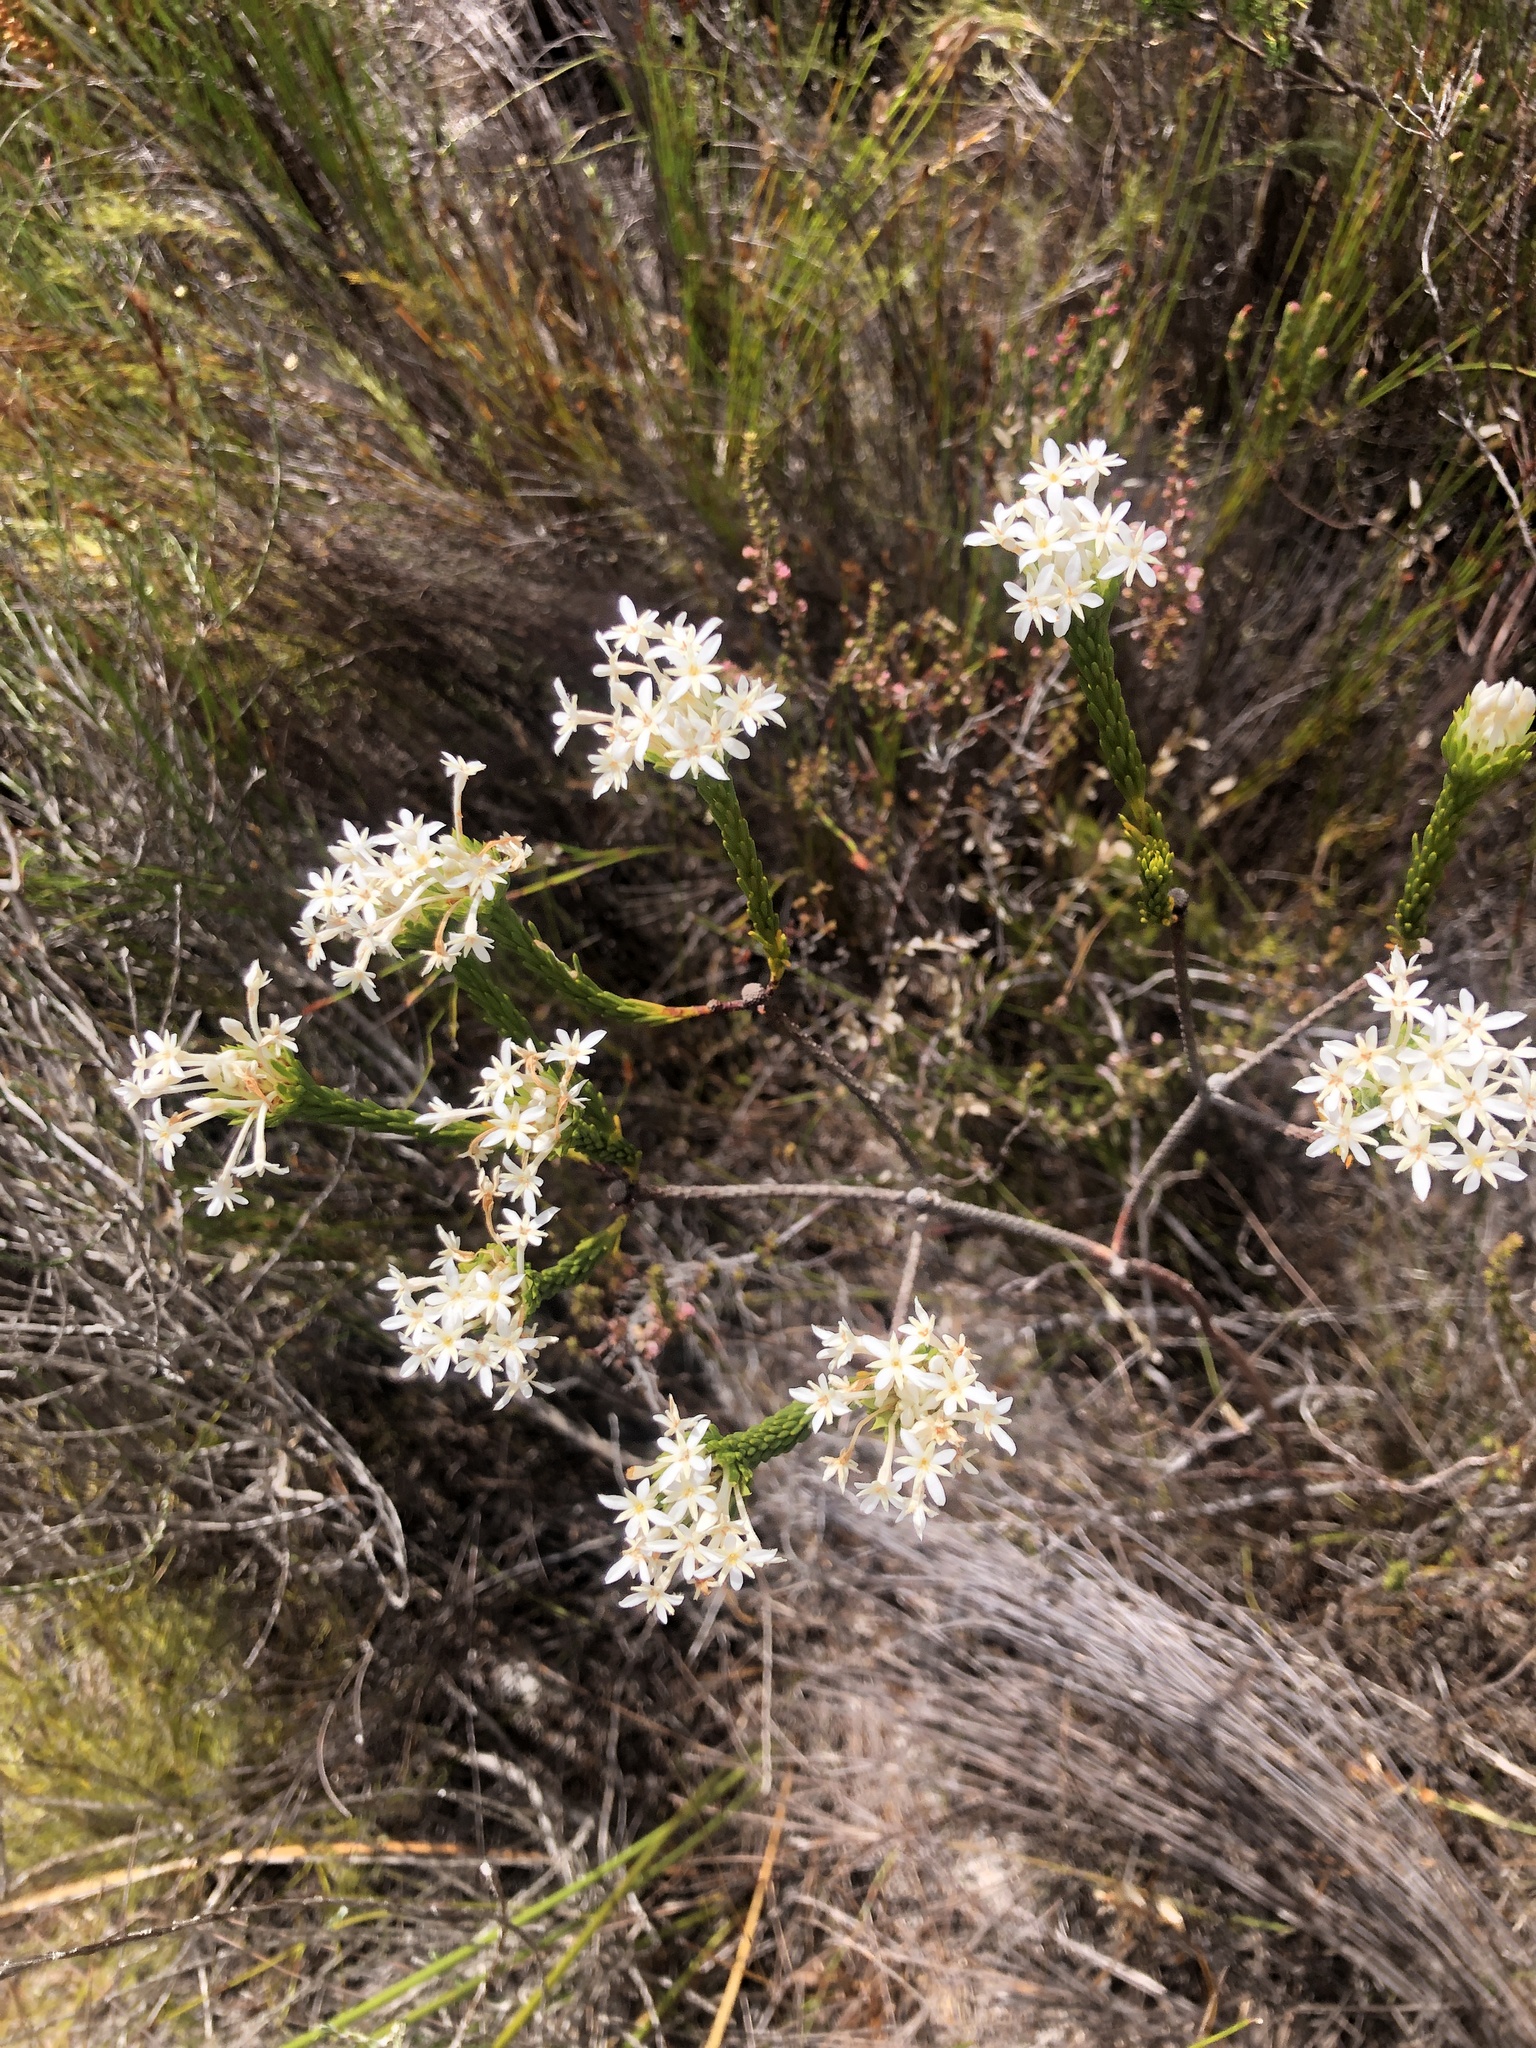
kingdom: Plantae
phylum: Tracheophyta
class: Magnoliopsida
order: Malvales
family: Thymelaeaceae
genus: Gnidia
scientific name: Gnidia pinifolia
